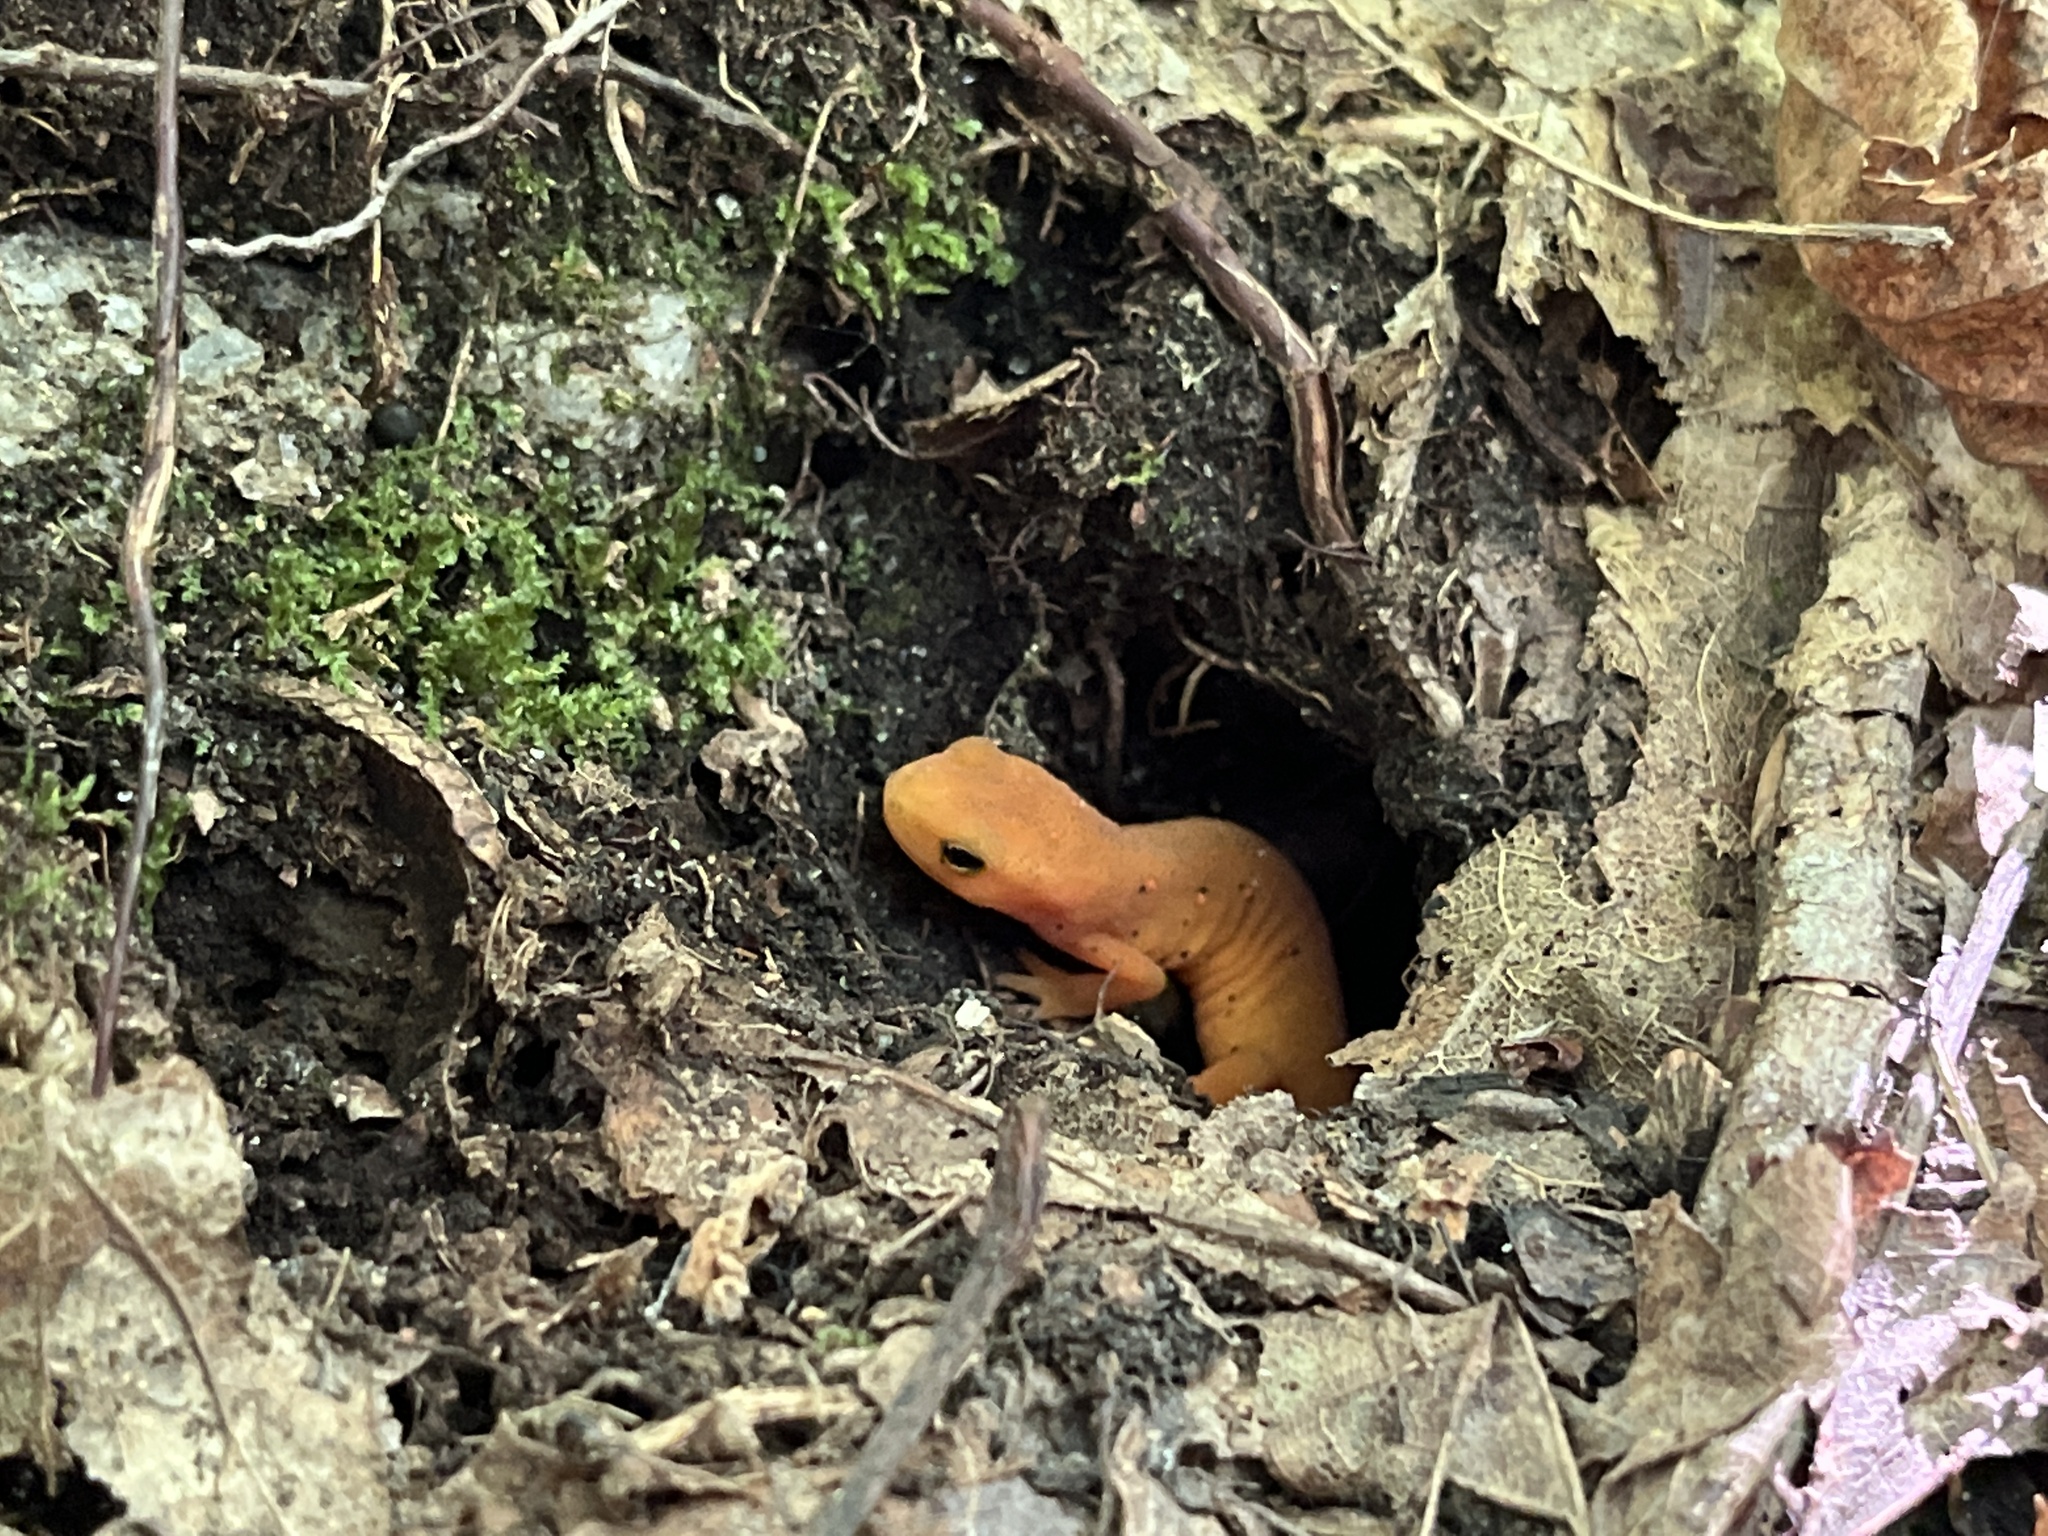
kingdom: Animalia
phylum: Chordata
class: Amphibia
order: Caudata
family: Salamandridae
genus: Notophthalmus
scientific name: Notophthalmus viridescens
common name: Eastern newt
